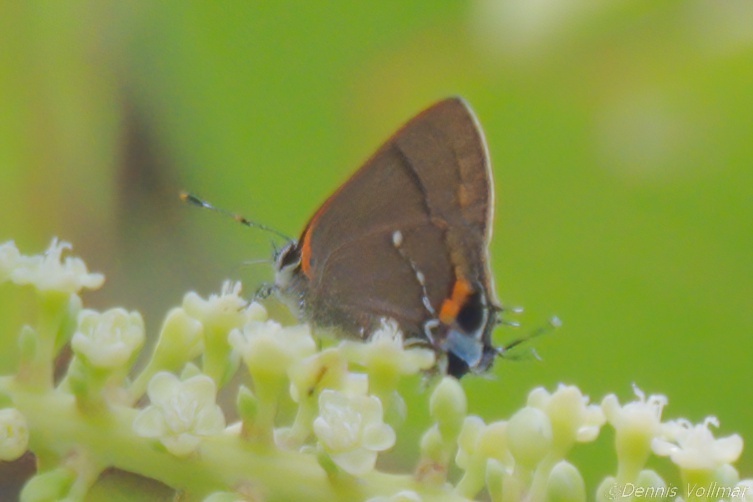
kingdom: Animalia
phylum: Arthropoda
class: Insecta
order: Lepidoptera
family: Lycaenidae
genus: Thecla
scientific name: Thecla angelia
